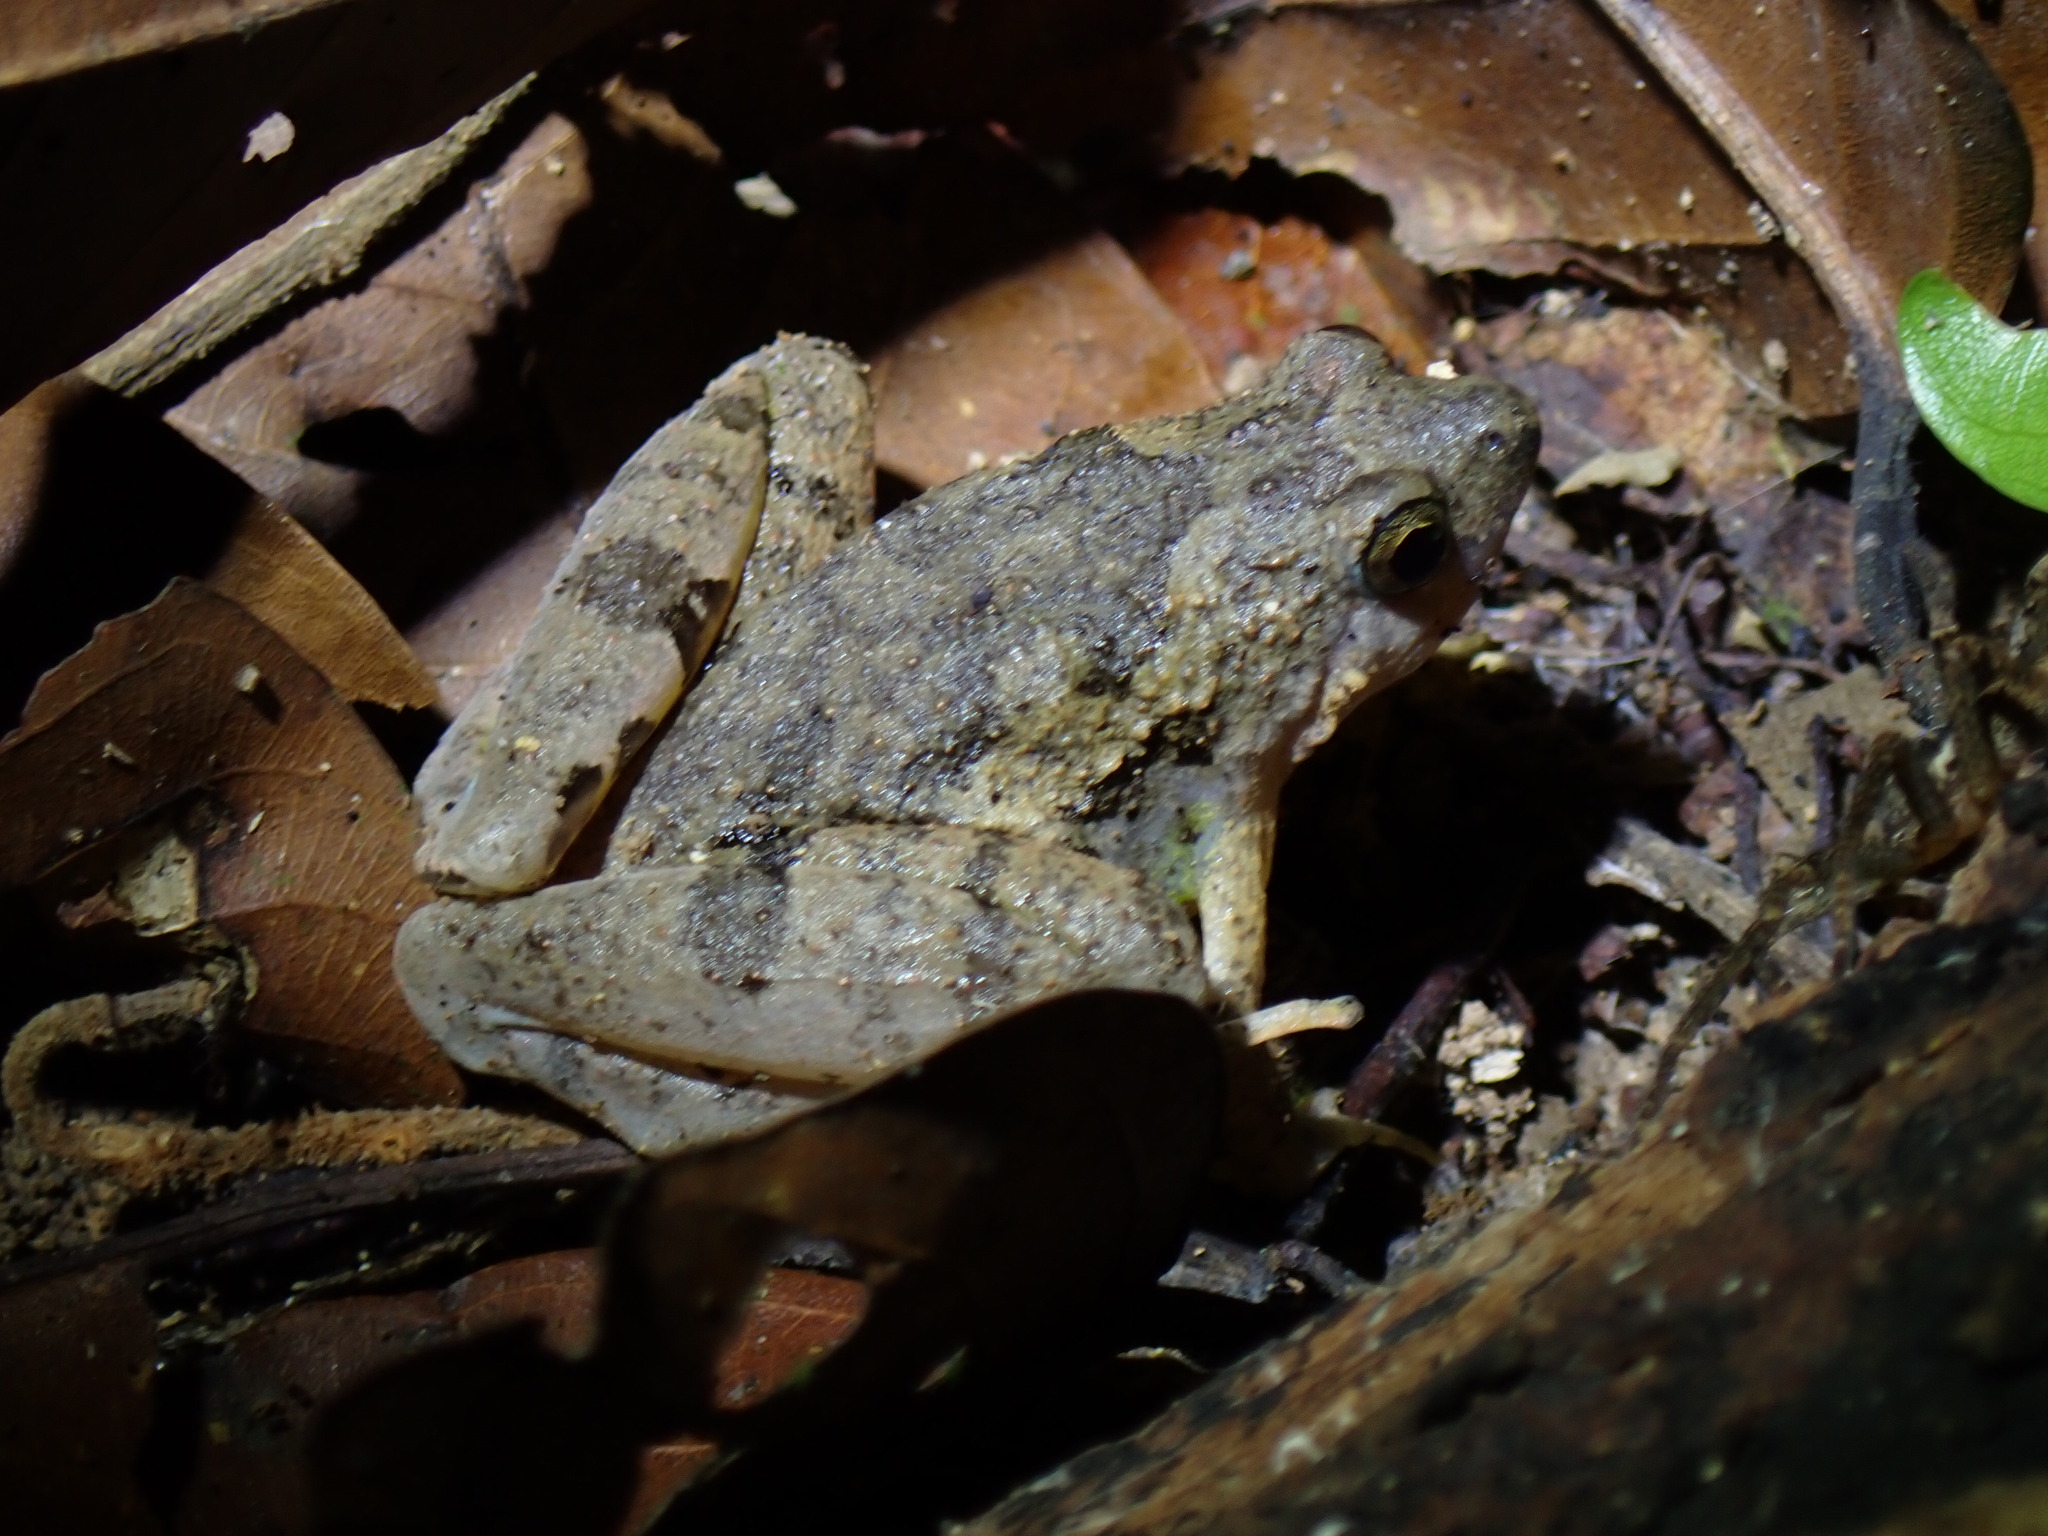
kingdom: Animalia
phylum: Chordata
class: Amphibia
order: Anura
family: Microhylidae
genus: Microhyla
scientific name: Microhyla berdmorei
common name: Berdmore’s narrow-mouthed frog,large pygmy frog
